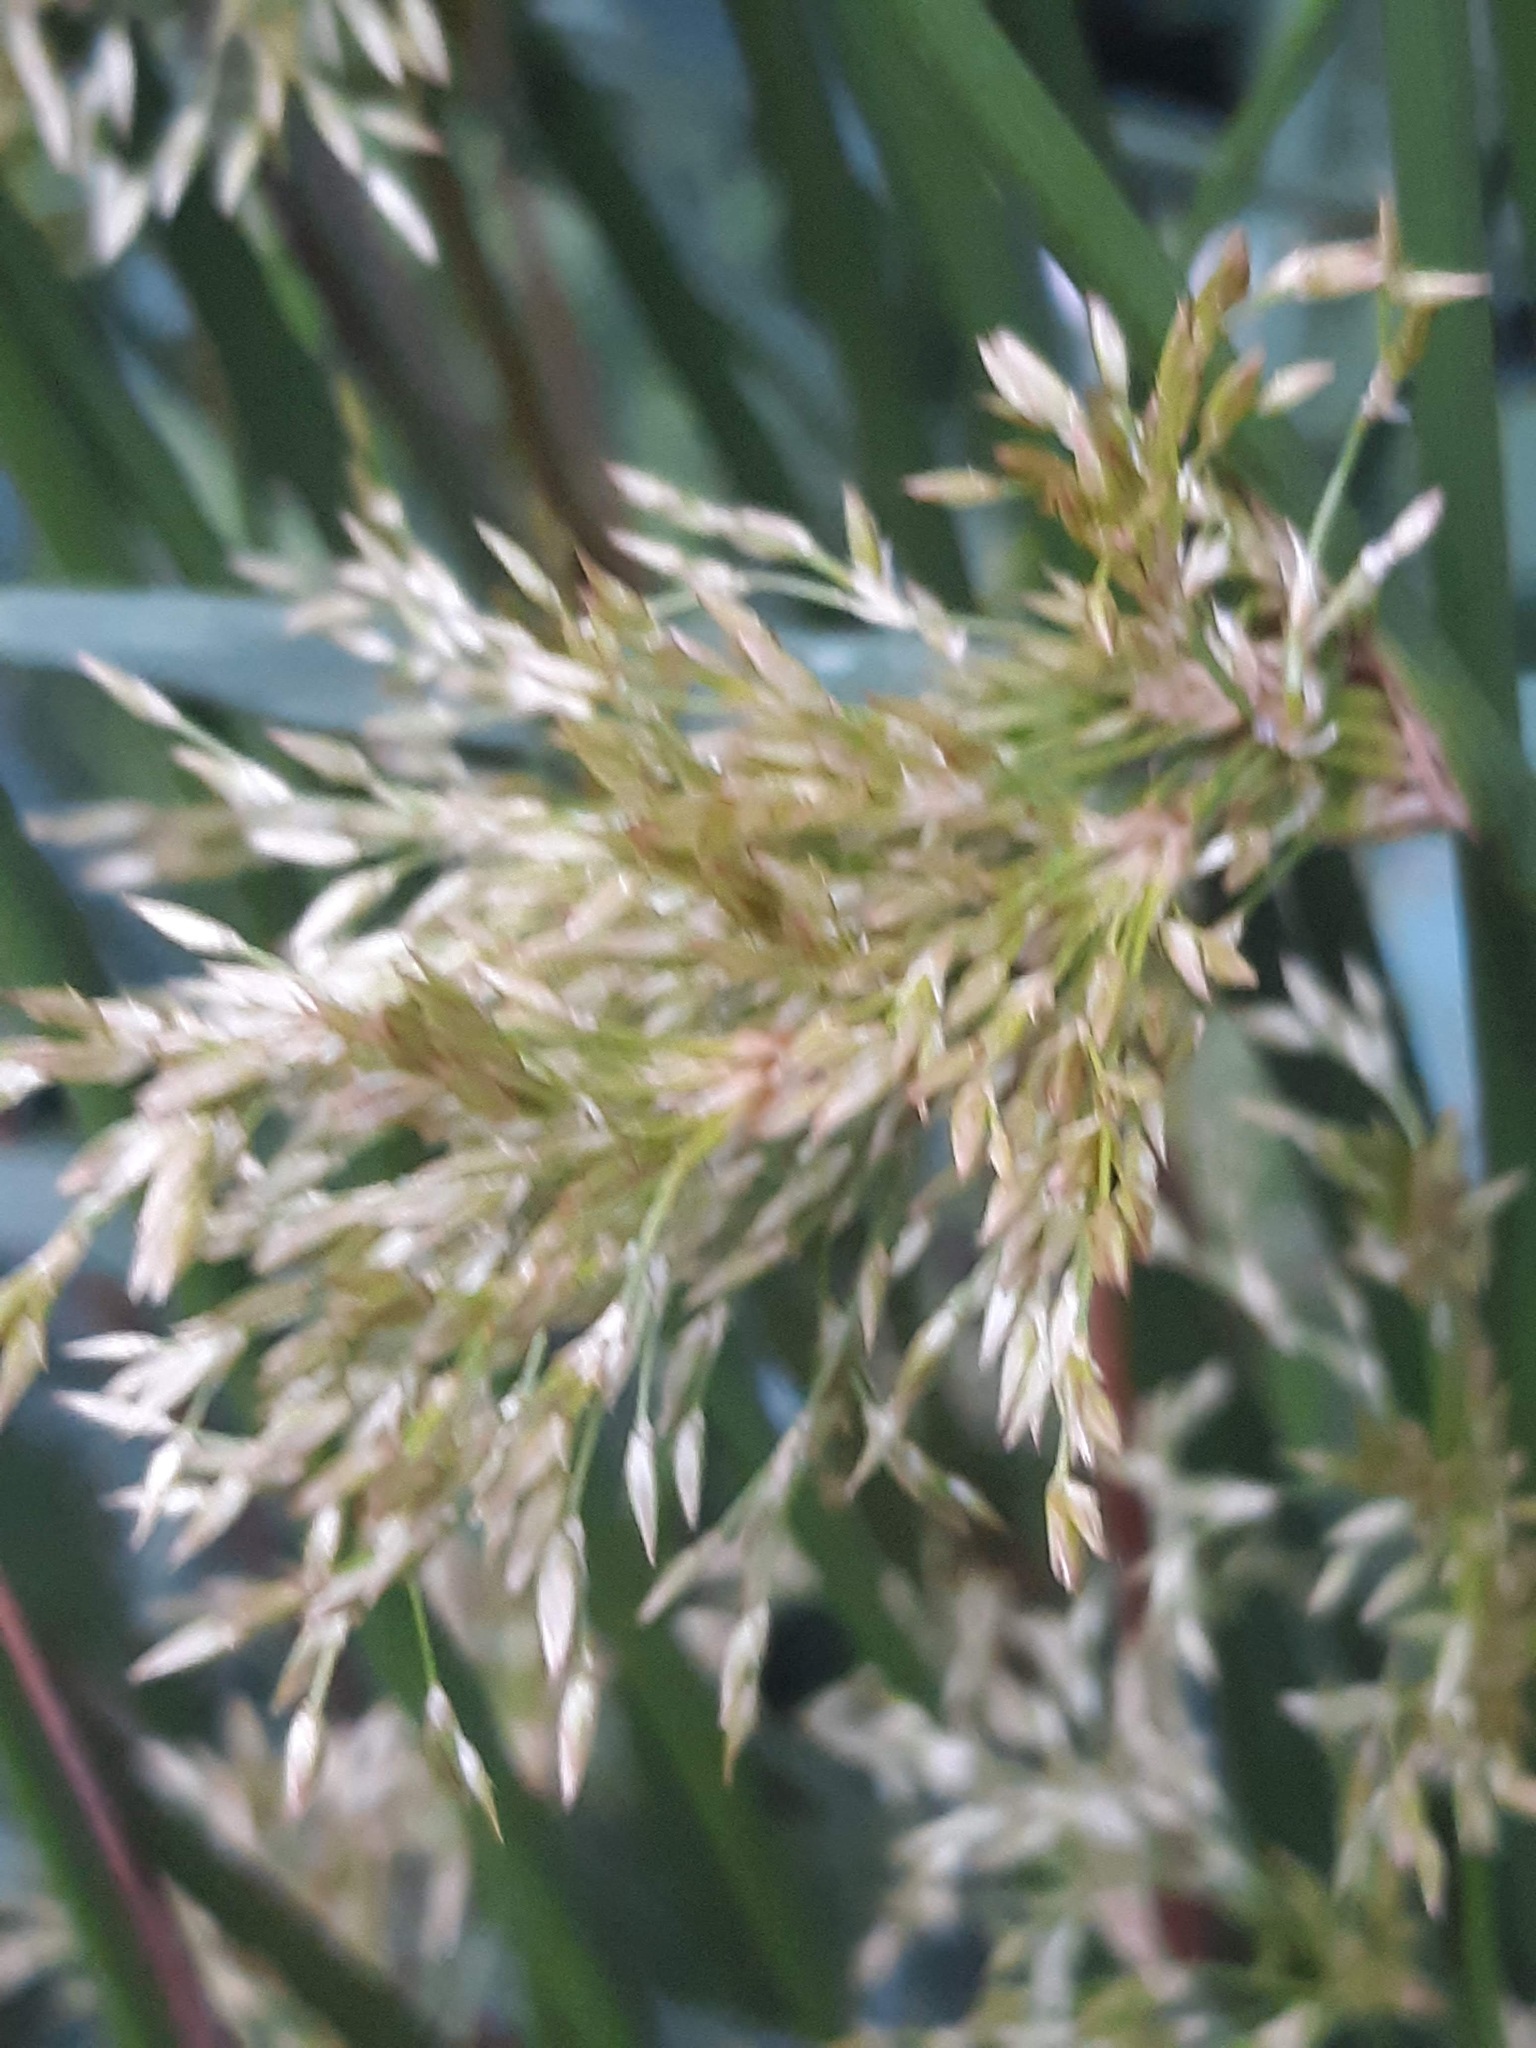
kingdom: Plantae
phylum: Tracheophyta
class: Liliopsida
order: Poales
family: Juncaceae
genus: Juncus
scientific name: Juncus effusus
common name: Soft rush
